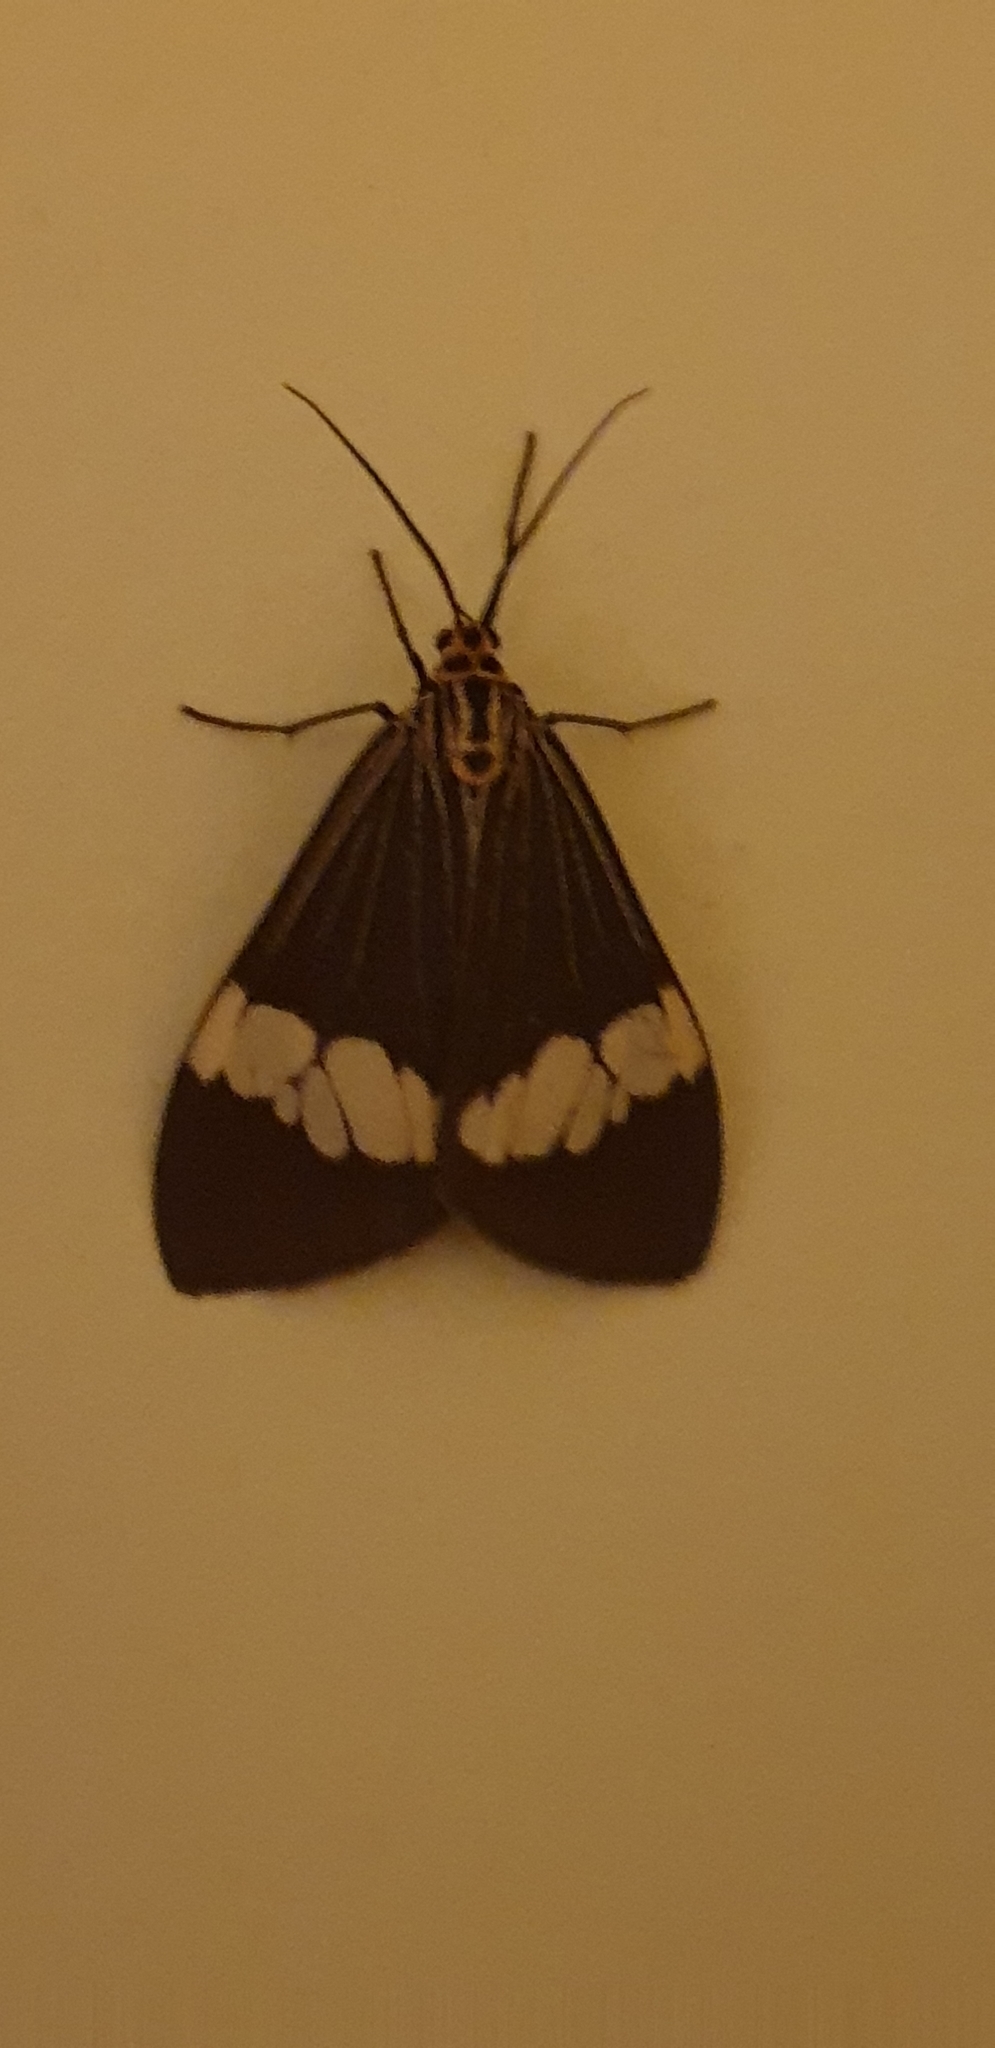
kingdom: Animalia
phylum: Arthropoda
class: Insecta
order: Lepidoptera
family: Erebidae
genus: Nyctemera
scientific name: Nyctemera baulus
